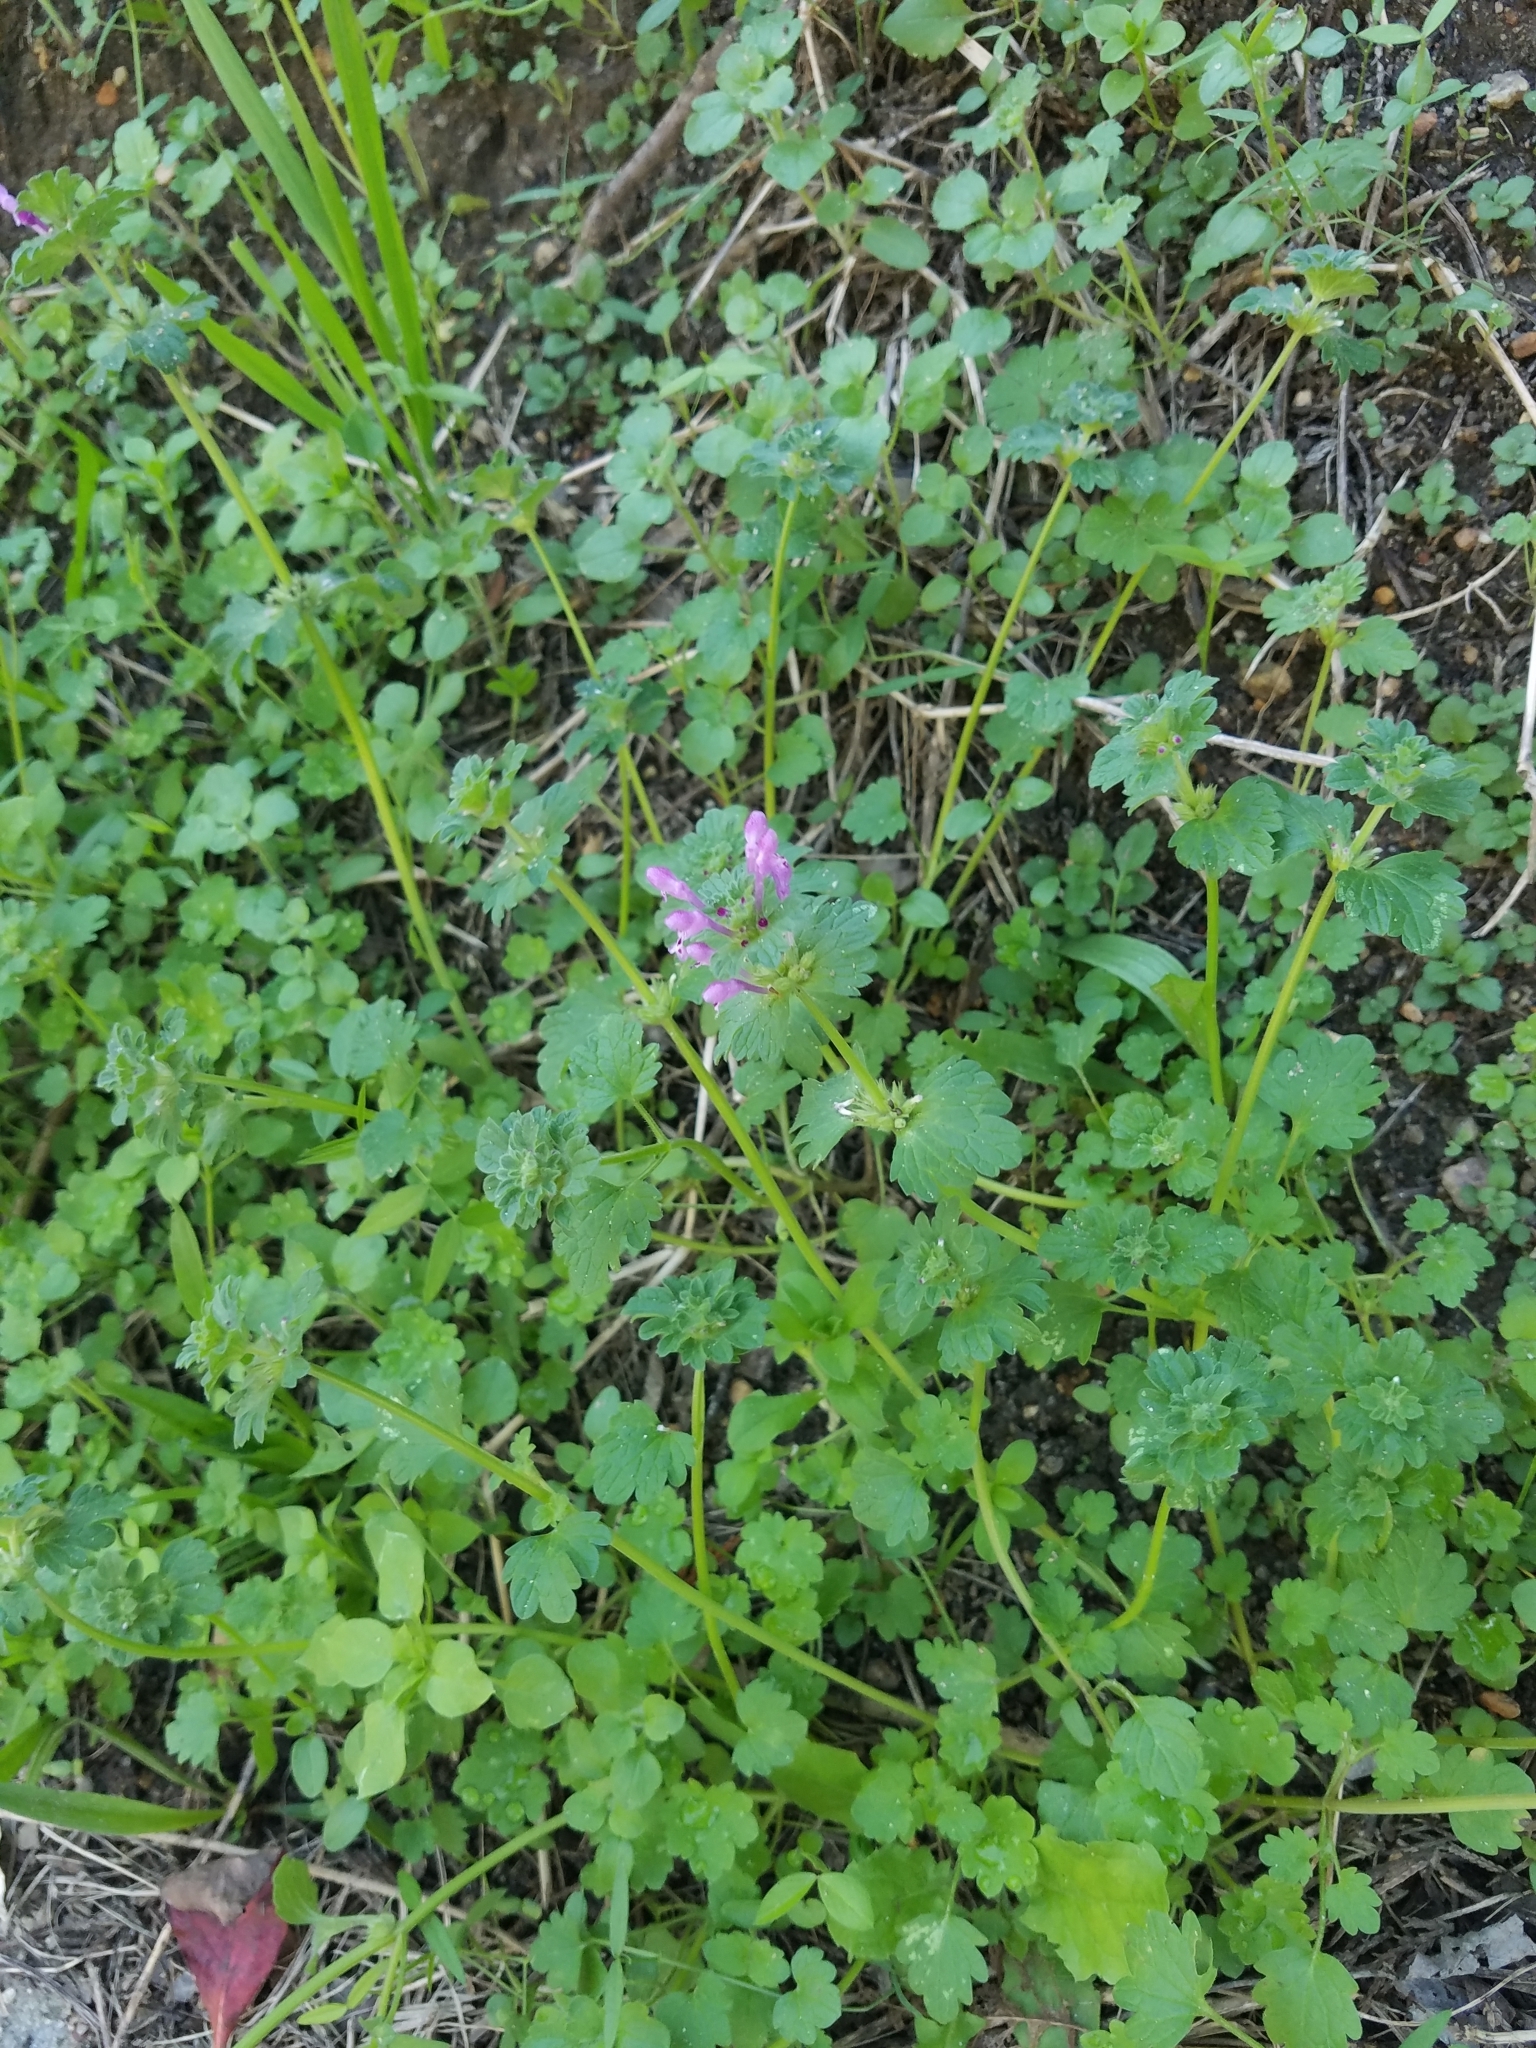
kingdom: Plantae
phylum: Tracheophyta
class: Magnoliopsida
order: Lamiales
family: Lamiaceae
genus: Lamium
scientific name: Lamium amplexicaule
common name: Henbit dead-nettle
